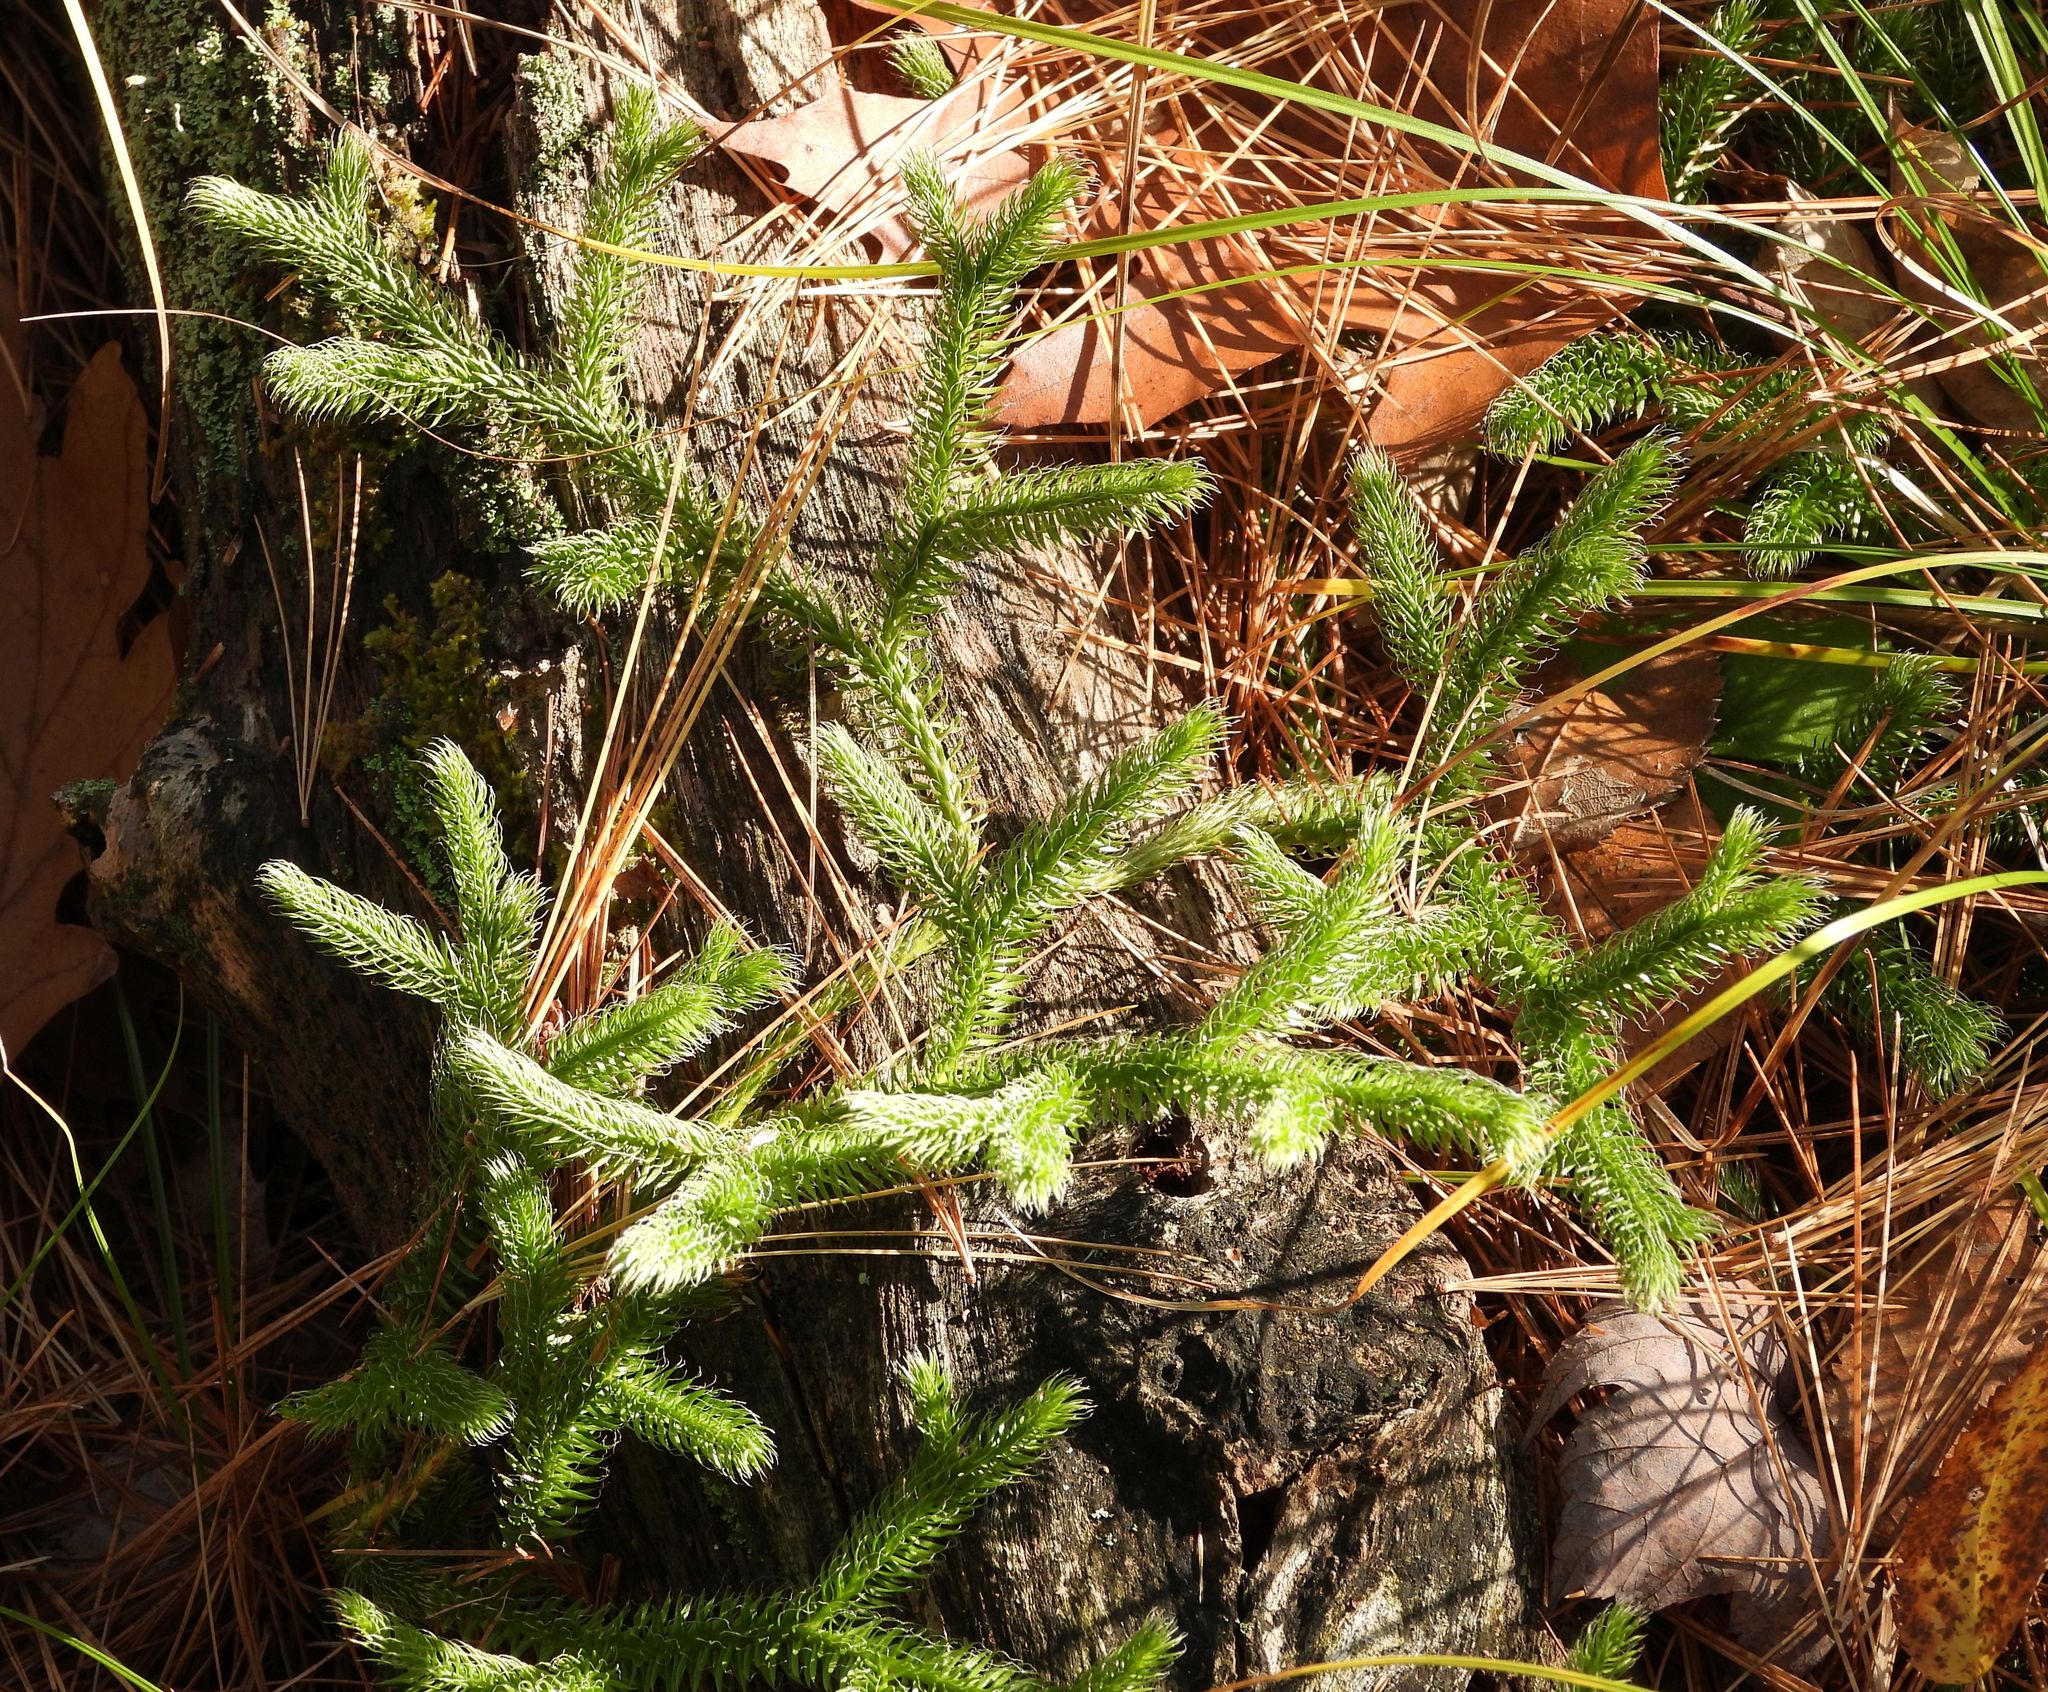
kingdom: Plantae
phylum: Tracheophyta
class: Lycopodiopsida
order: Lycopodiales
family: Lycopodiaceae
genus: Lycopodium
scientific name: Lycopodium clavatum
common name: Stag's-horn clubmoss
